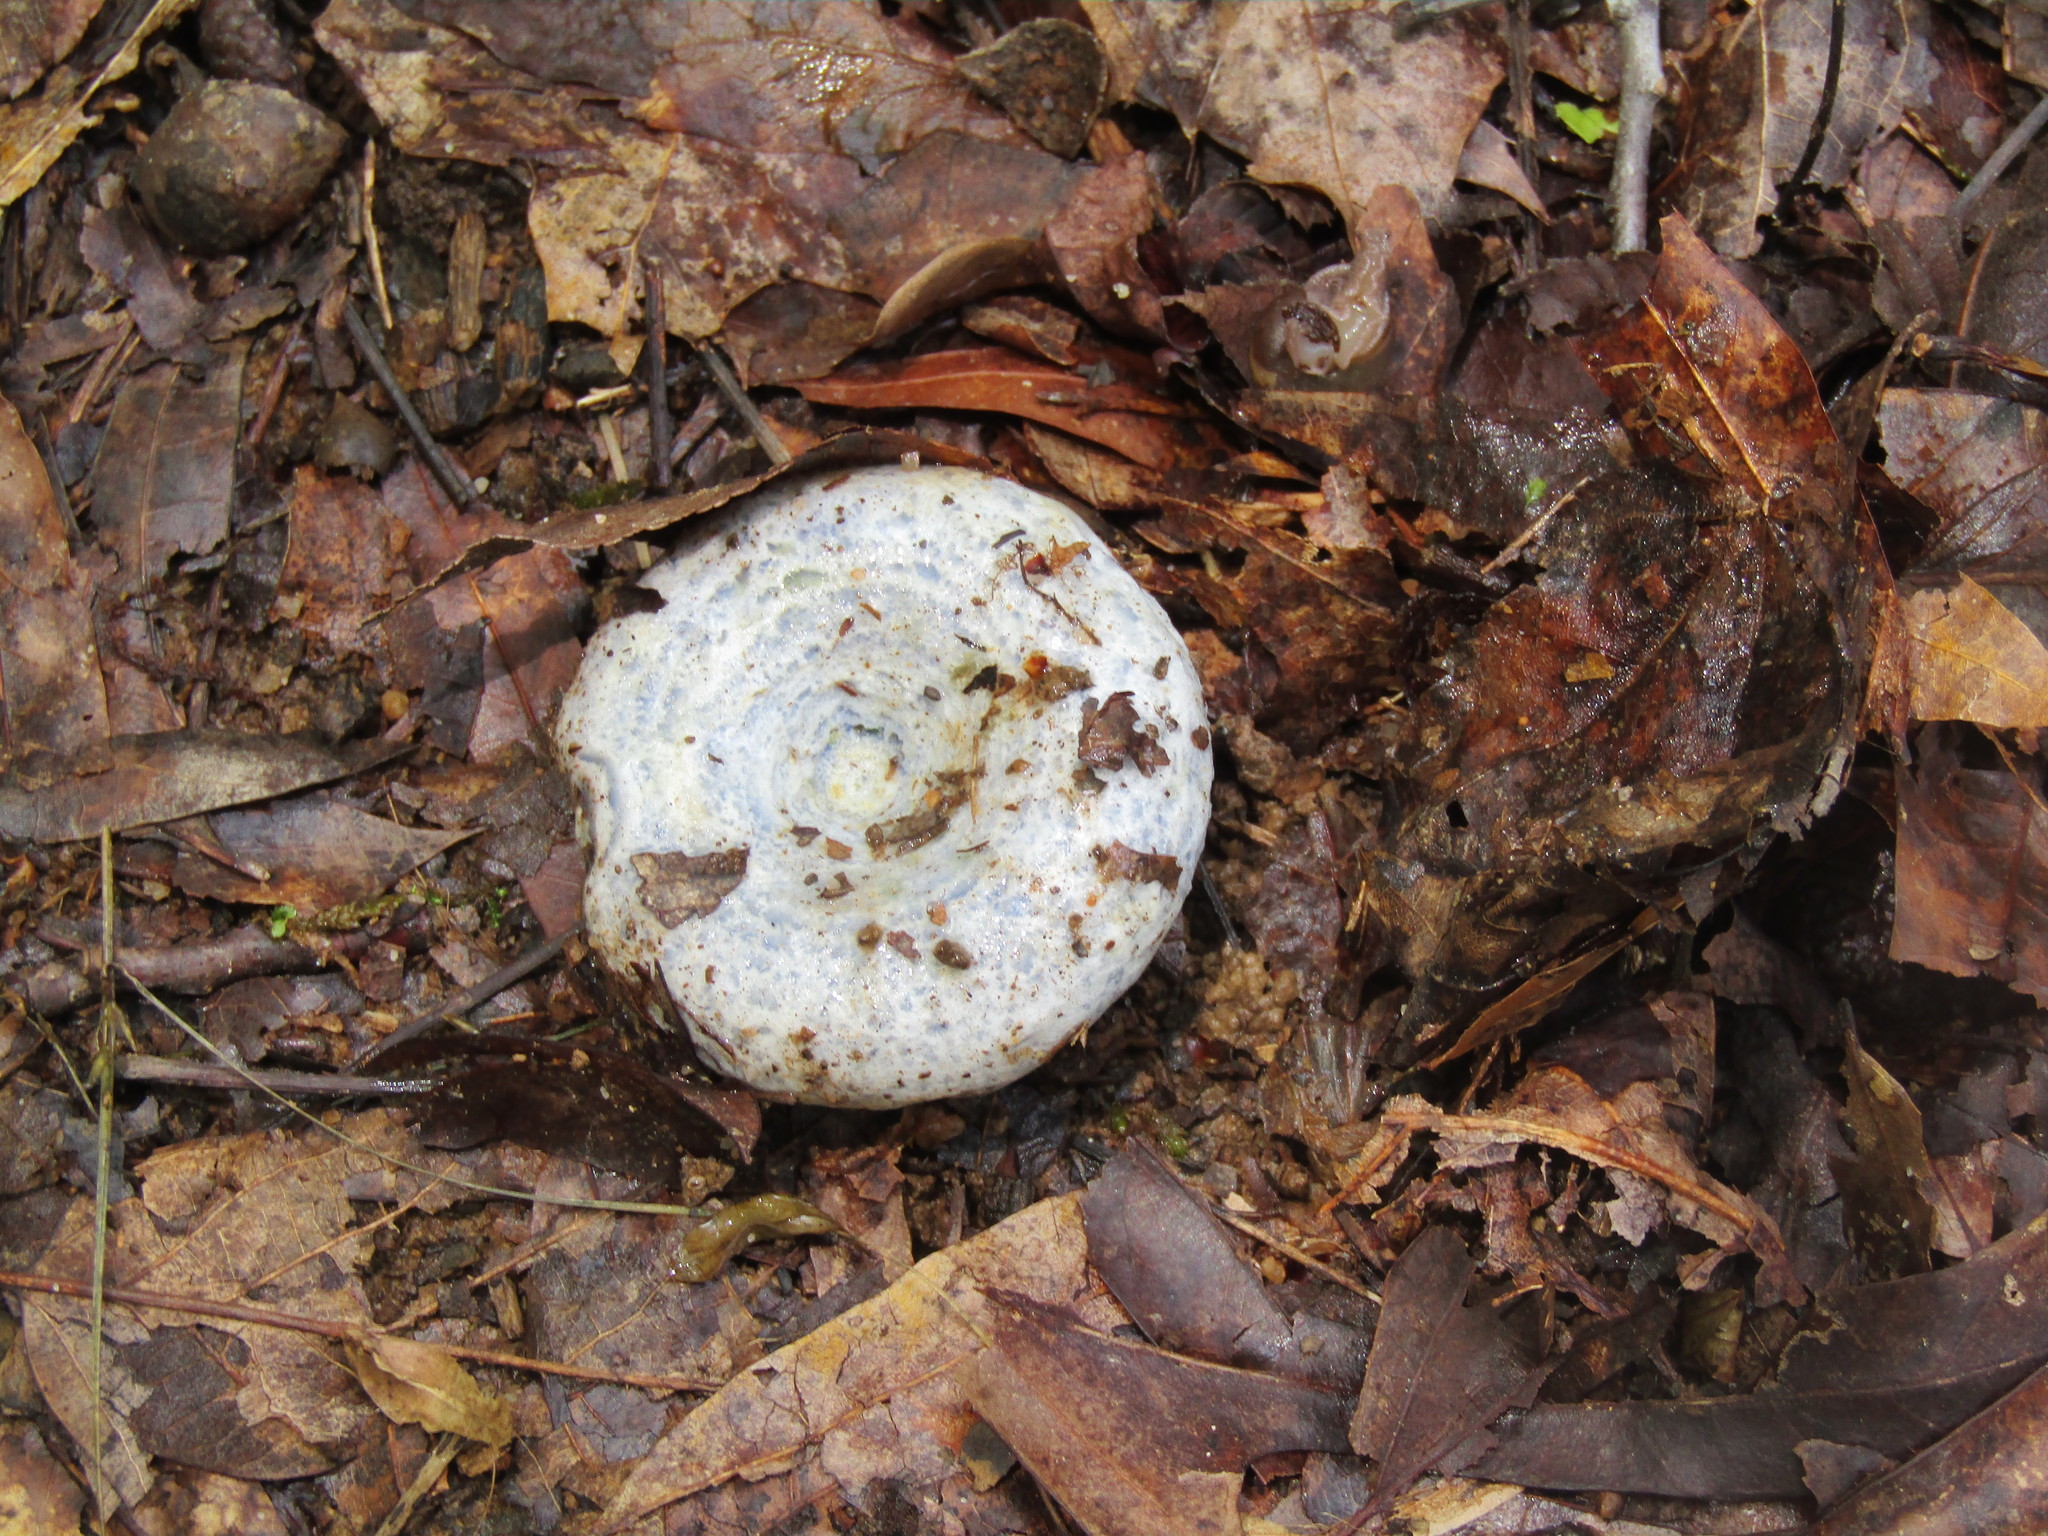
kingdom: Fungi
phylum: Basidiomycota
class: Agaricomycetes
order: Russulales
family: Russulaceae
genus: Lactarius
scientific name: Lactarius indigo
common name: Indigo milk cap
